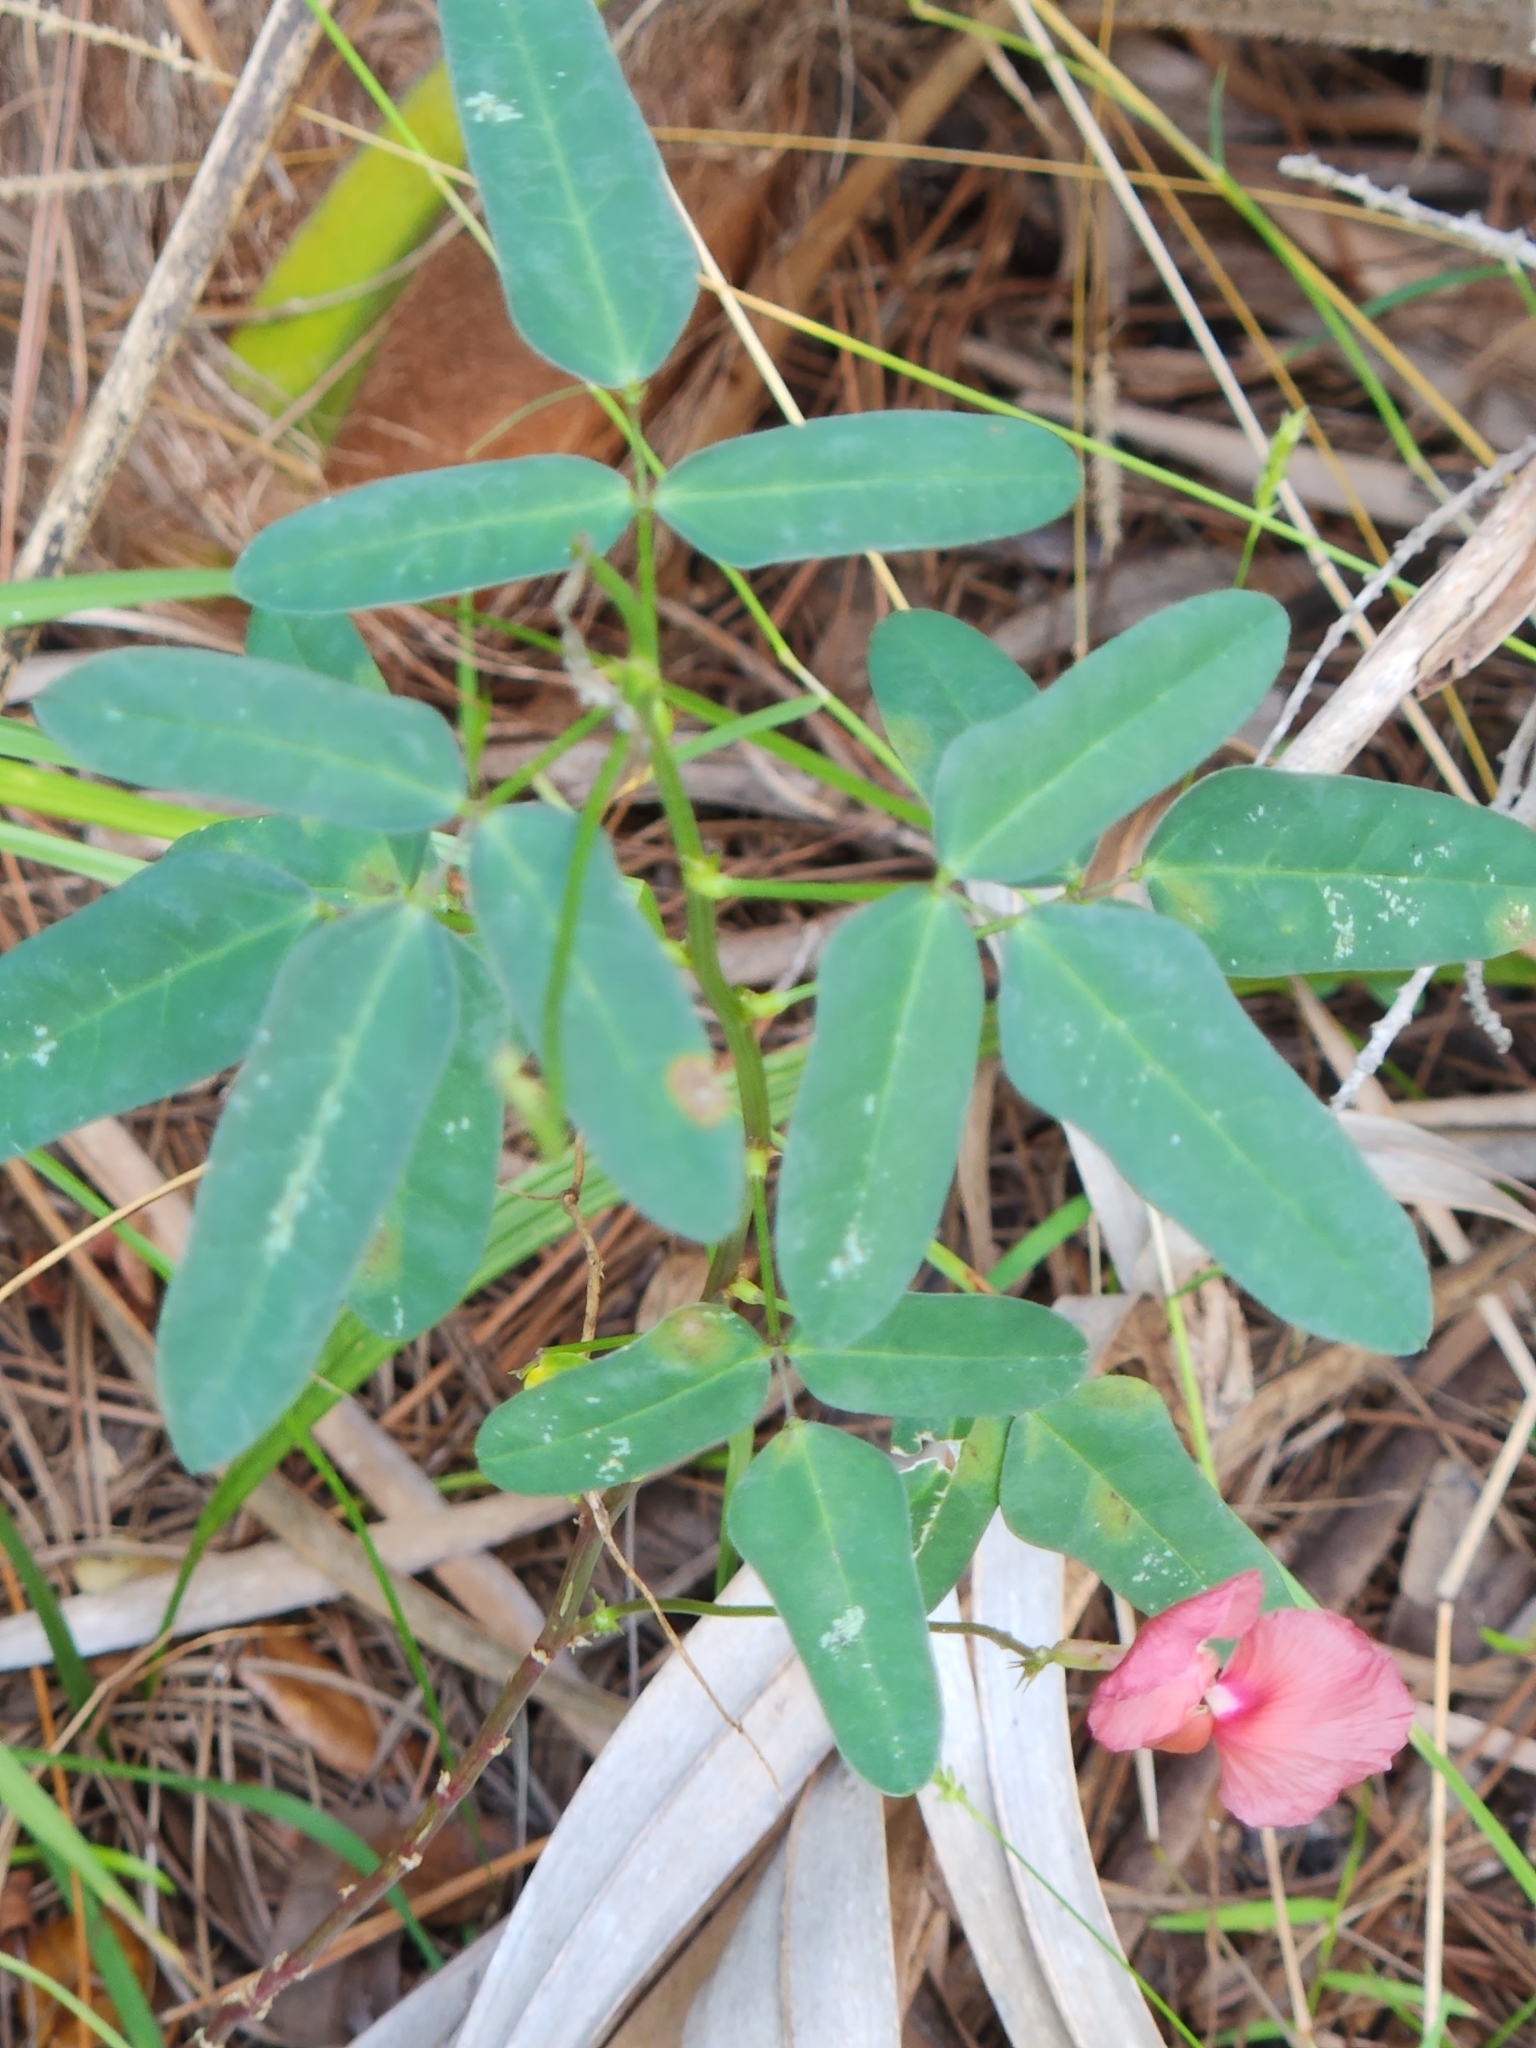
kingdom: Plantae
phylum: Tracheophyta
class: Magnoliopsida
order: Fabales
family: Fabaceae
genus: Macroptilium
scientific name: Macroptilium lathyroides
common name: Wild bushbean
